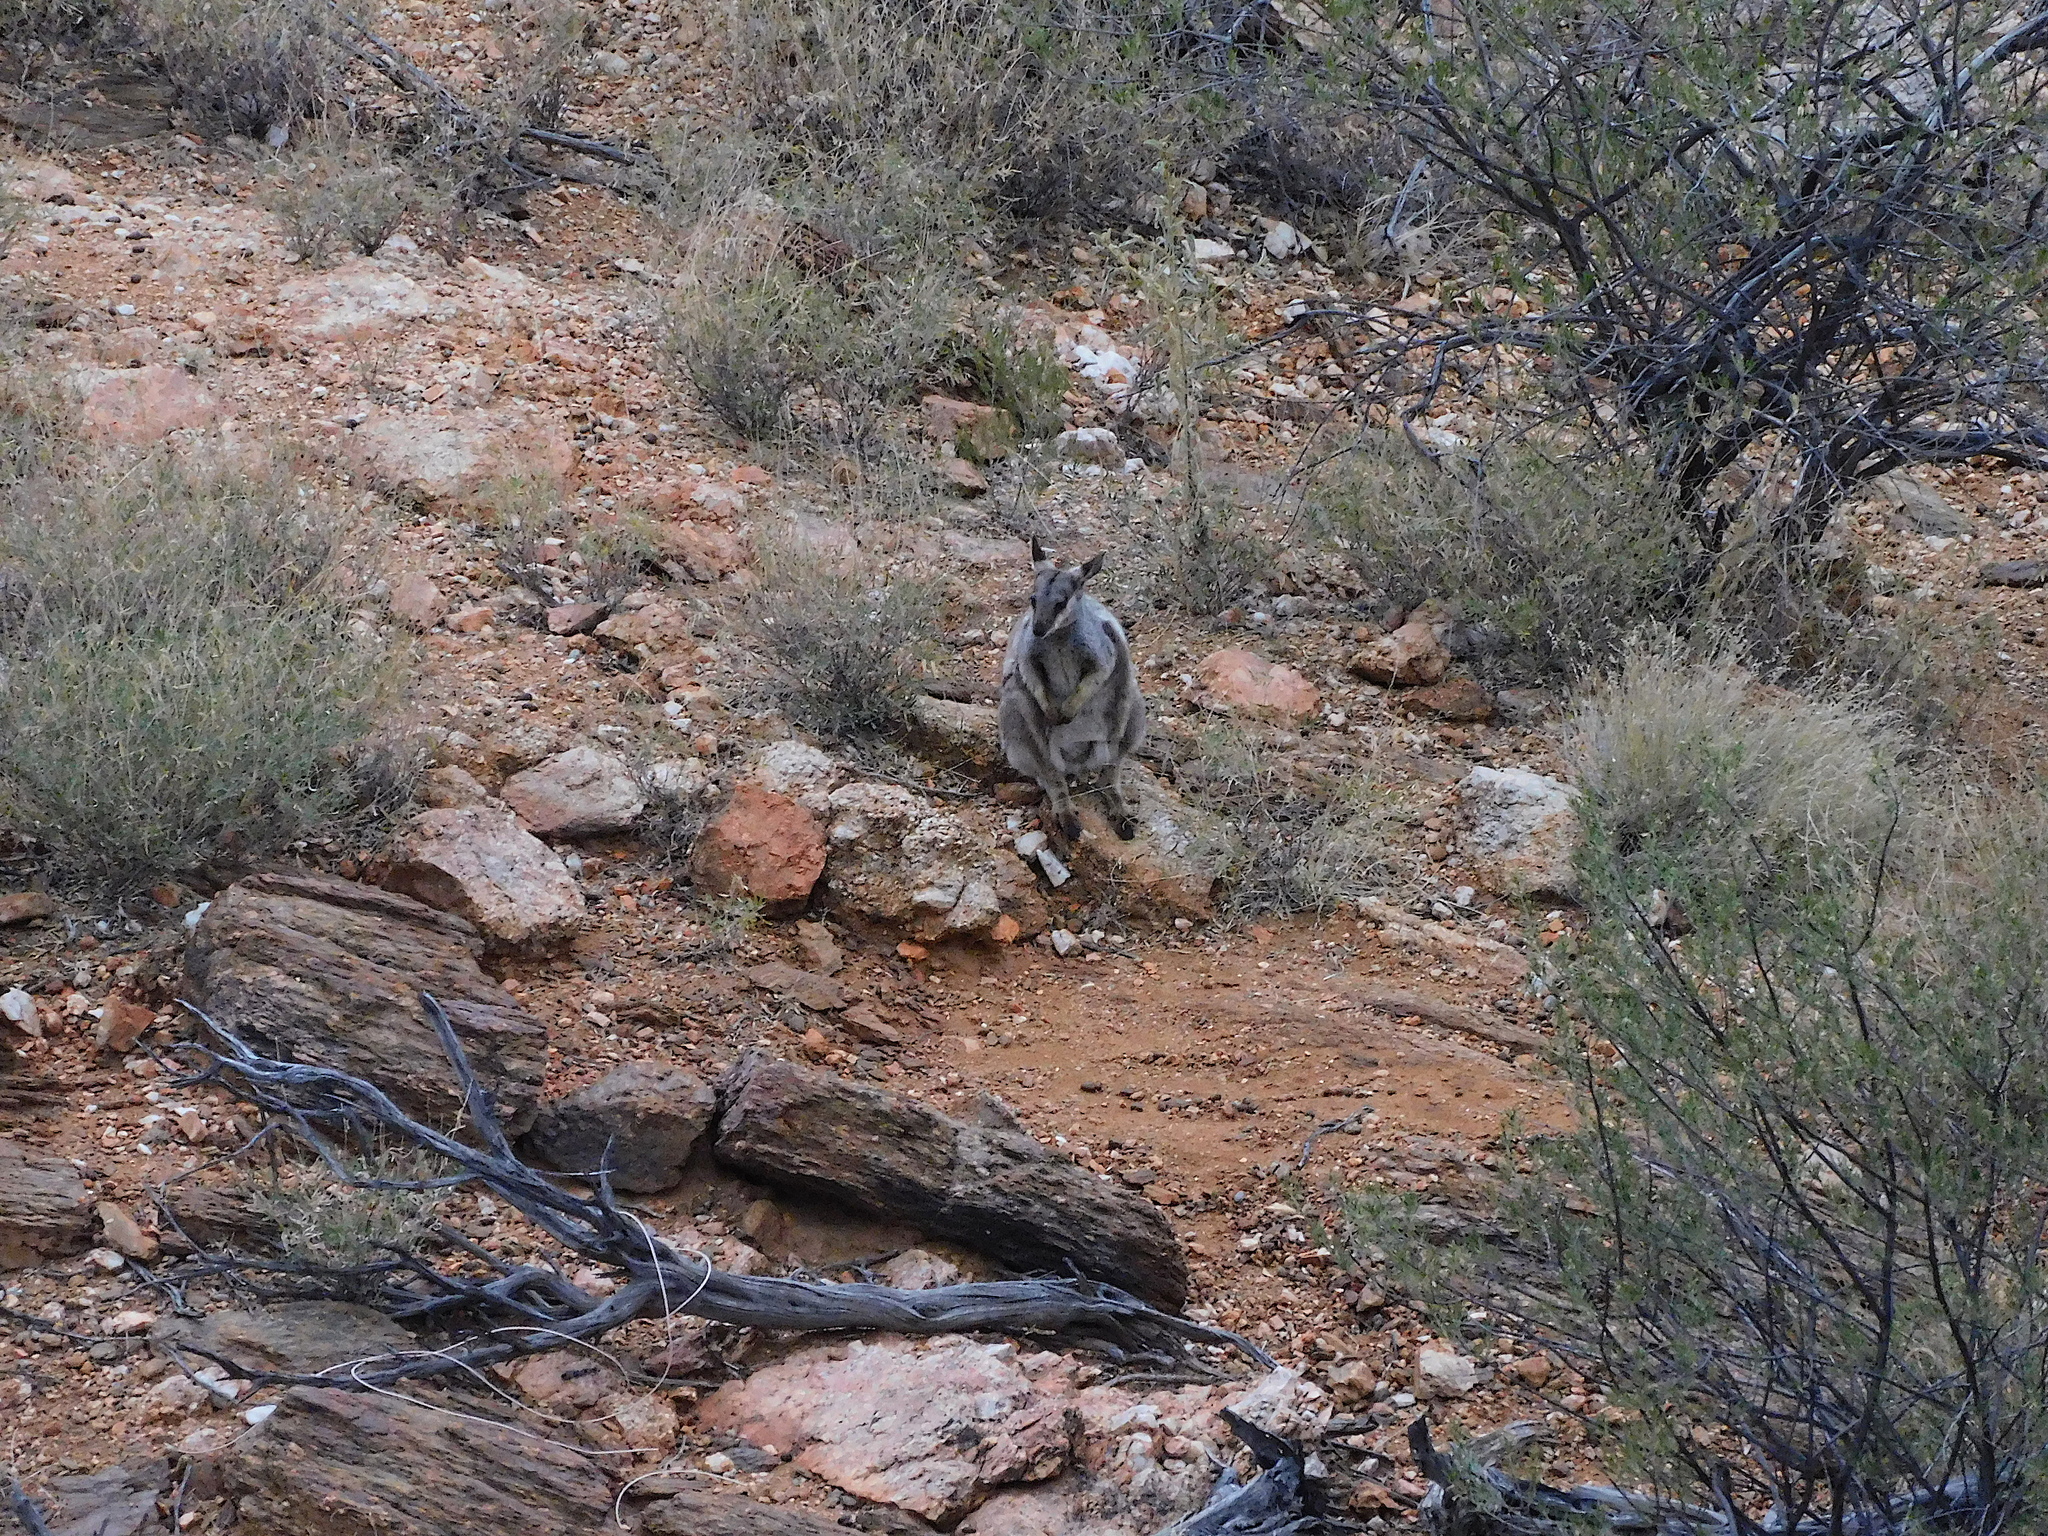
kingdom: Animalia
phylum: Chordata
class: Mammalia
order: Diprotodontia
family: Macropodidae
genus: Petrogale
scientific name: Petrogale lateralis
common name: Black-flanked rock-wallaby
